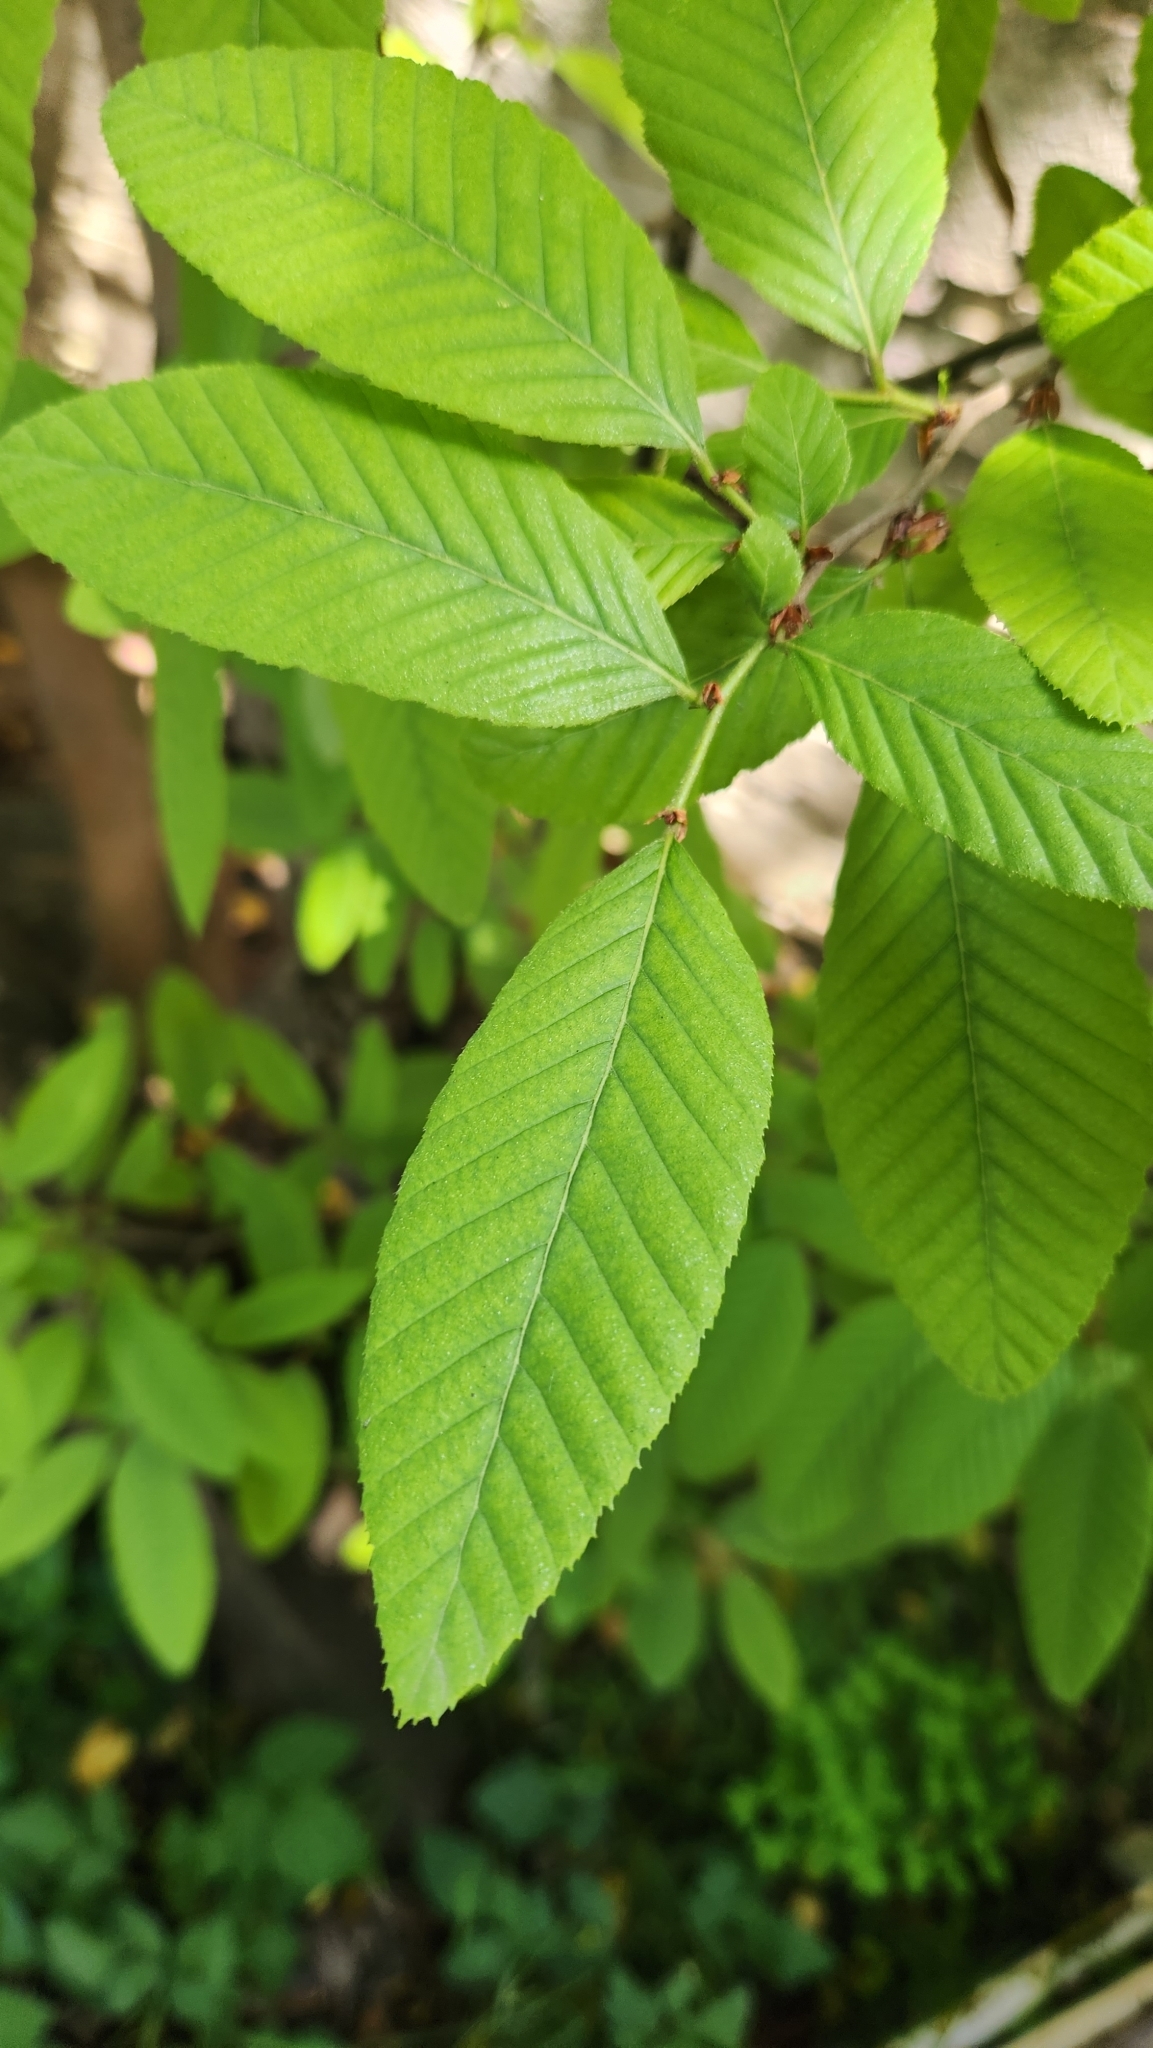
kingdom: Plantae
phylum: Tracheophyta
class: Magnoliopsida
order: Fagales
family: Nothofagaceae
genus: Nothofagus
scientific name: Nothofagus alpina
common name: Rauli
